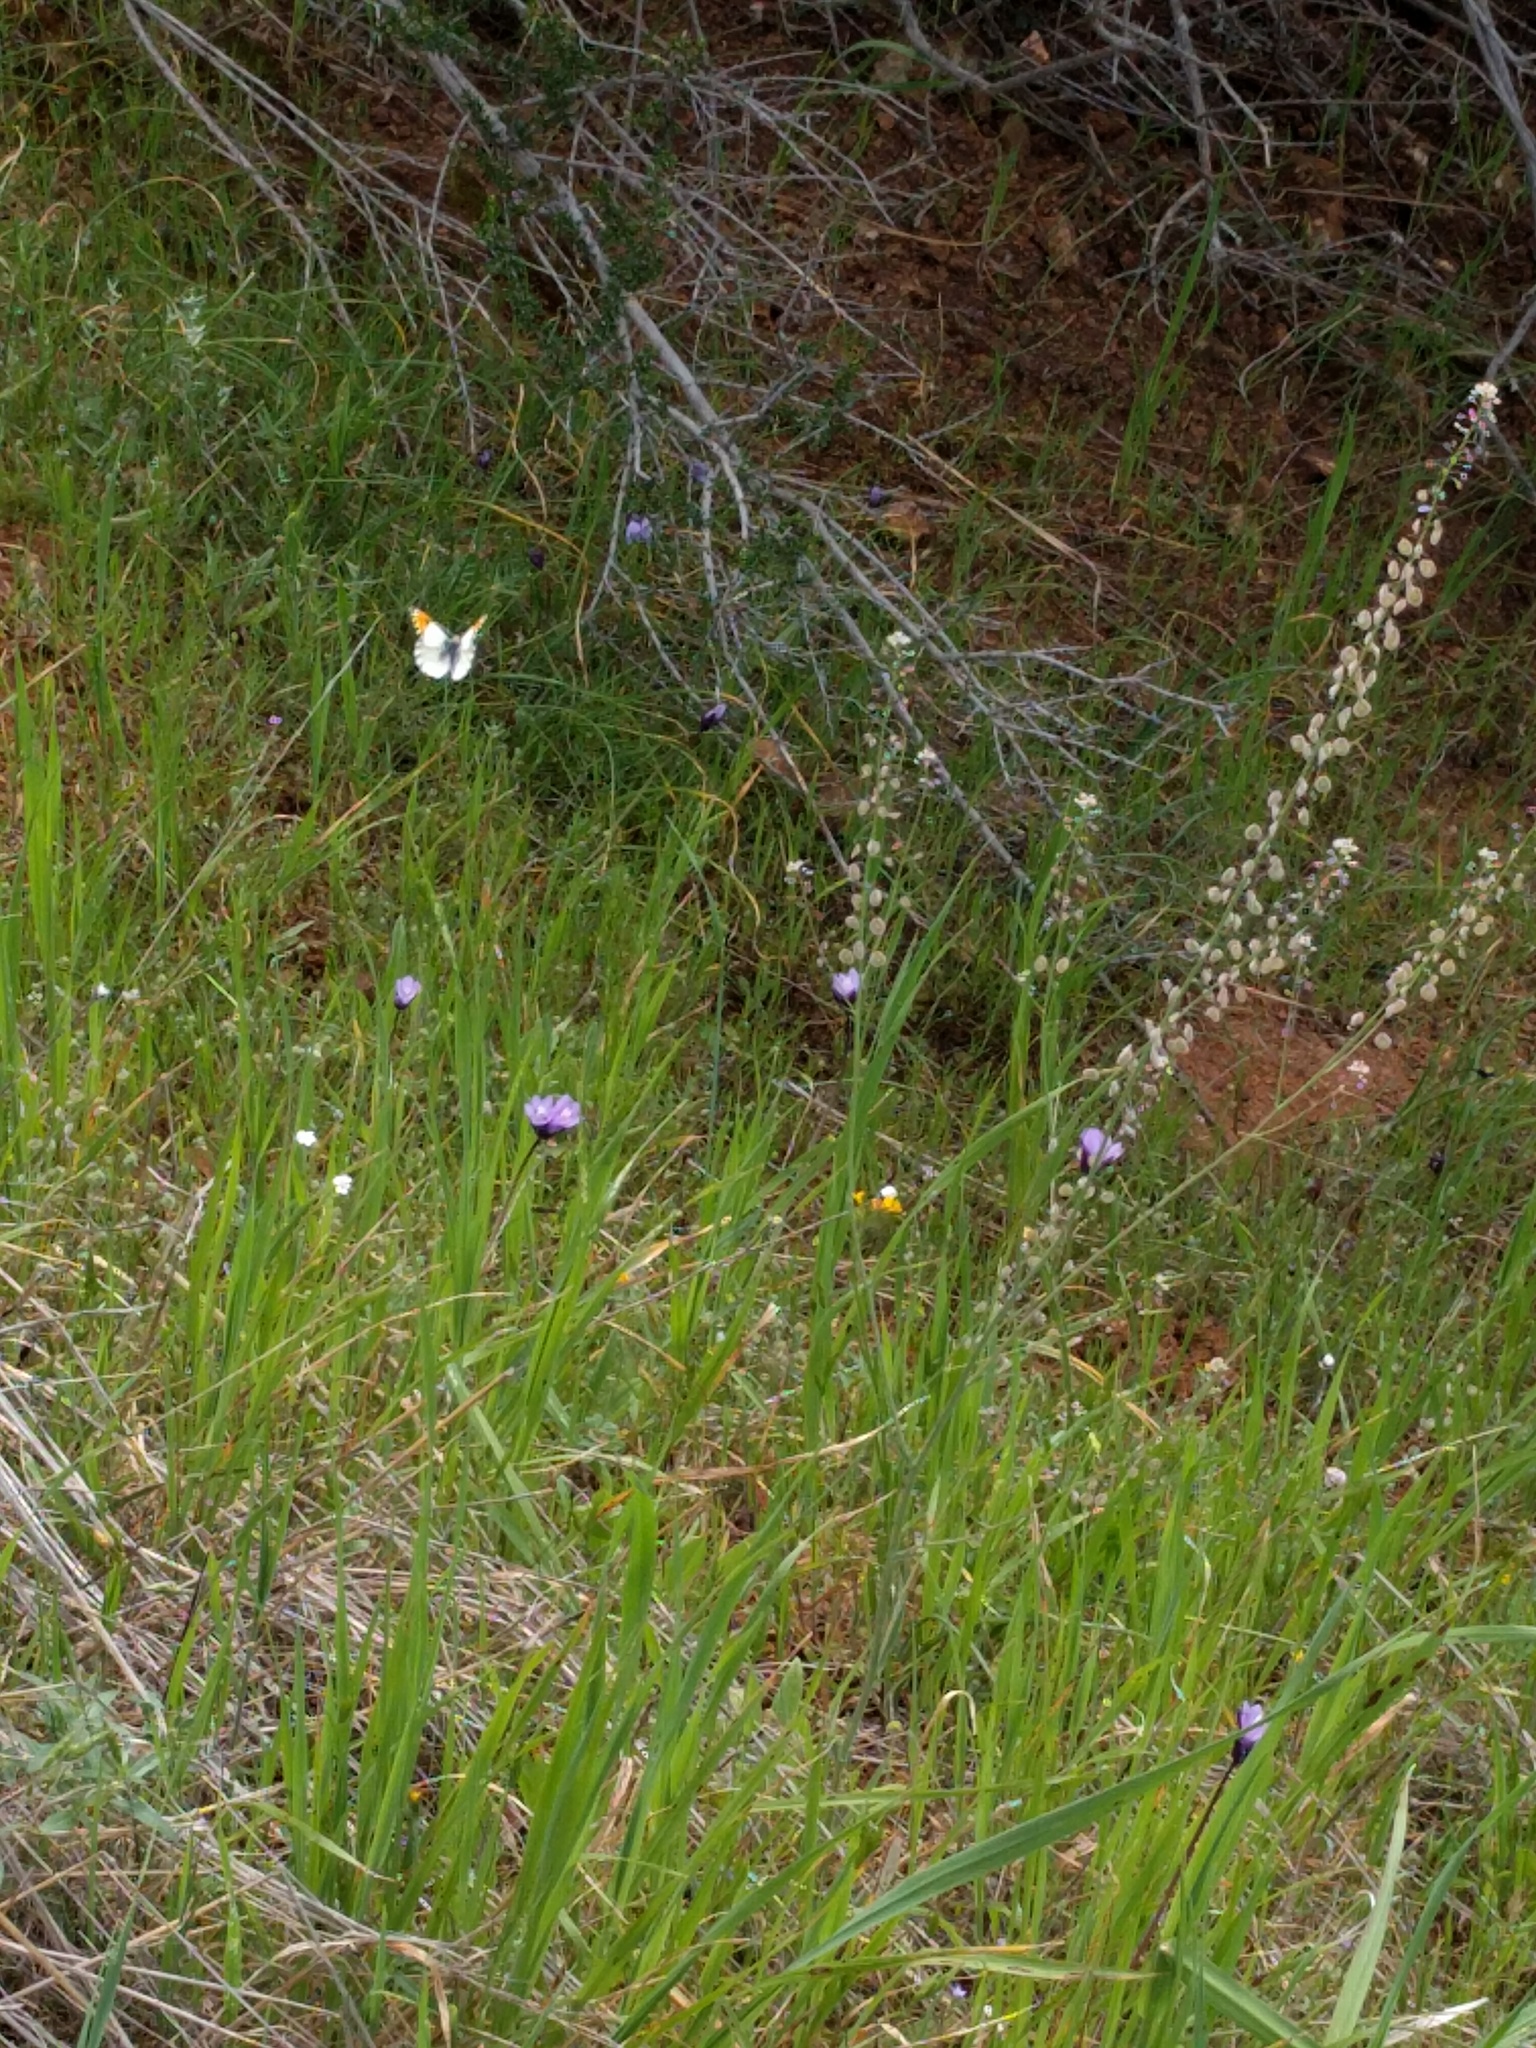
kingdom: Animalia
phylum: Arthropoda
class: Insecta
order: Lepidoptera
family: Pieridae
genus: Anthocharis
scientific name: Anthocharis sara
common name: Sara's orangetip
